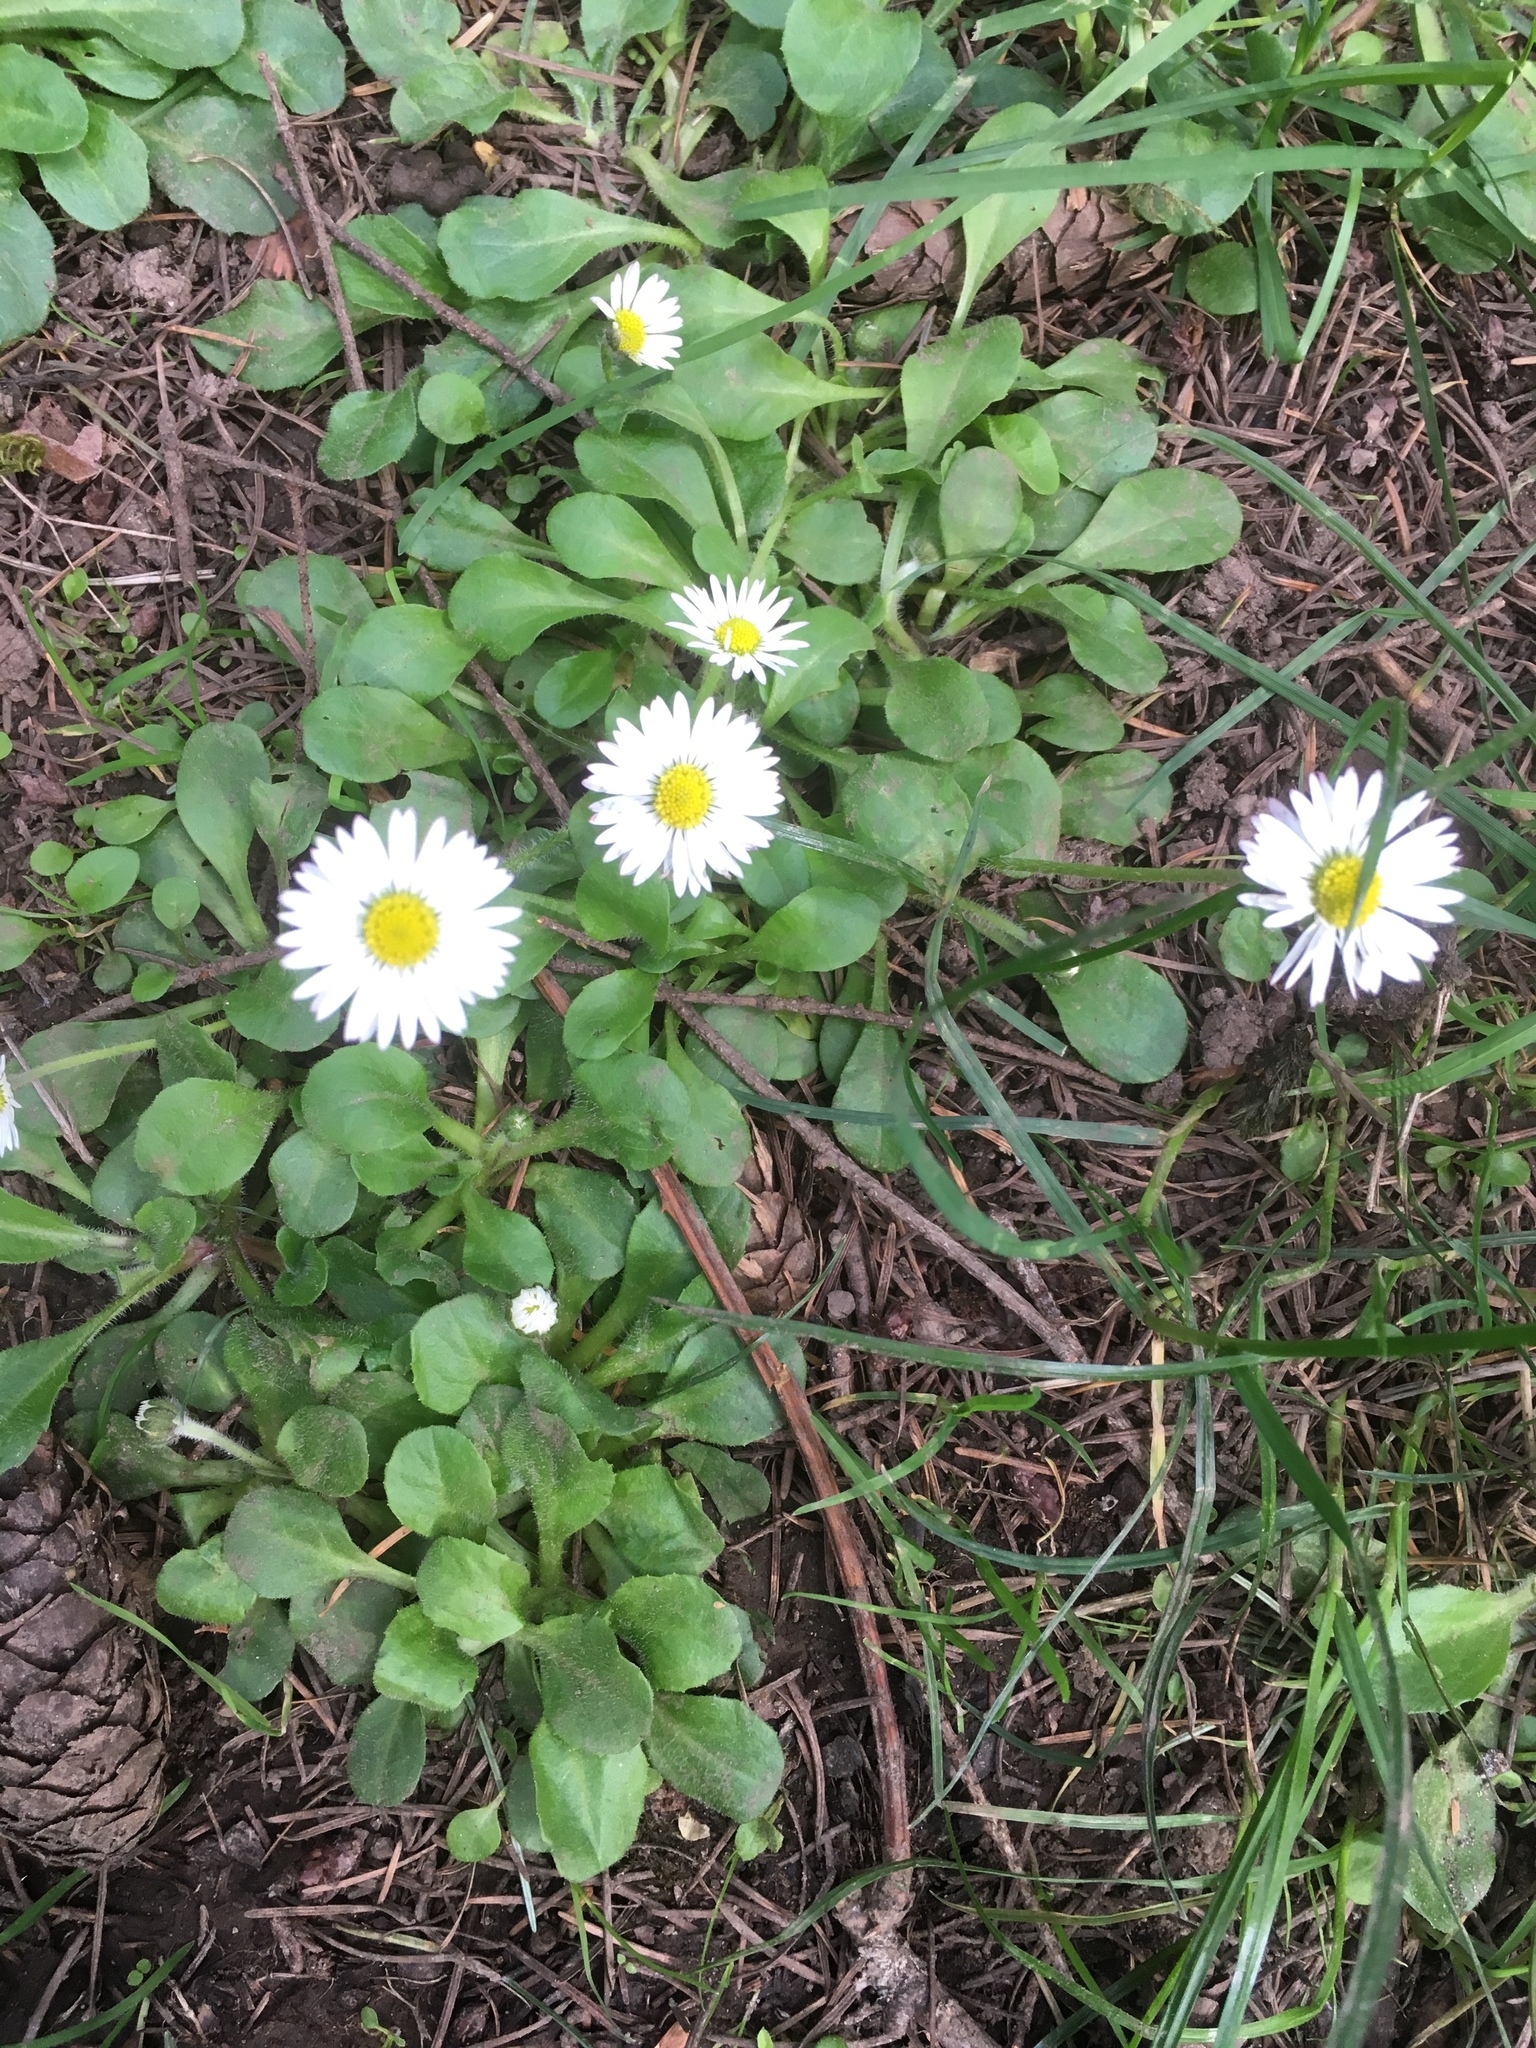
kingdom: Plantae
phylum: Tracheophyta
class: Magnoliopsida
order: Asterales
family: Asteraceae
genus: Bellis
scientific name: Bellis perennis
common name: Lawndaisy
